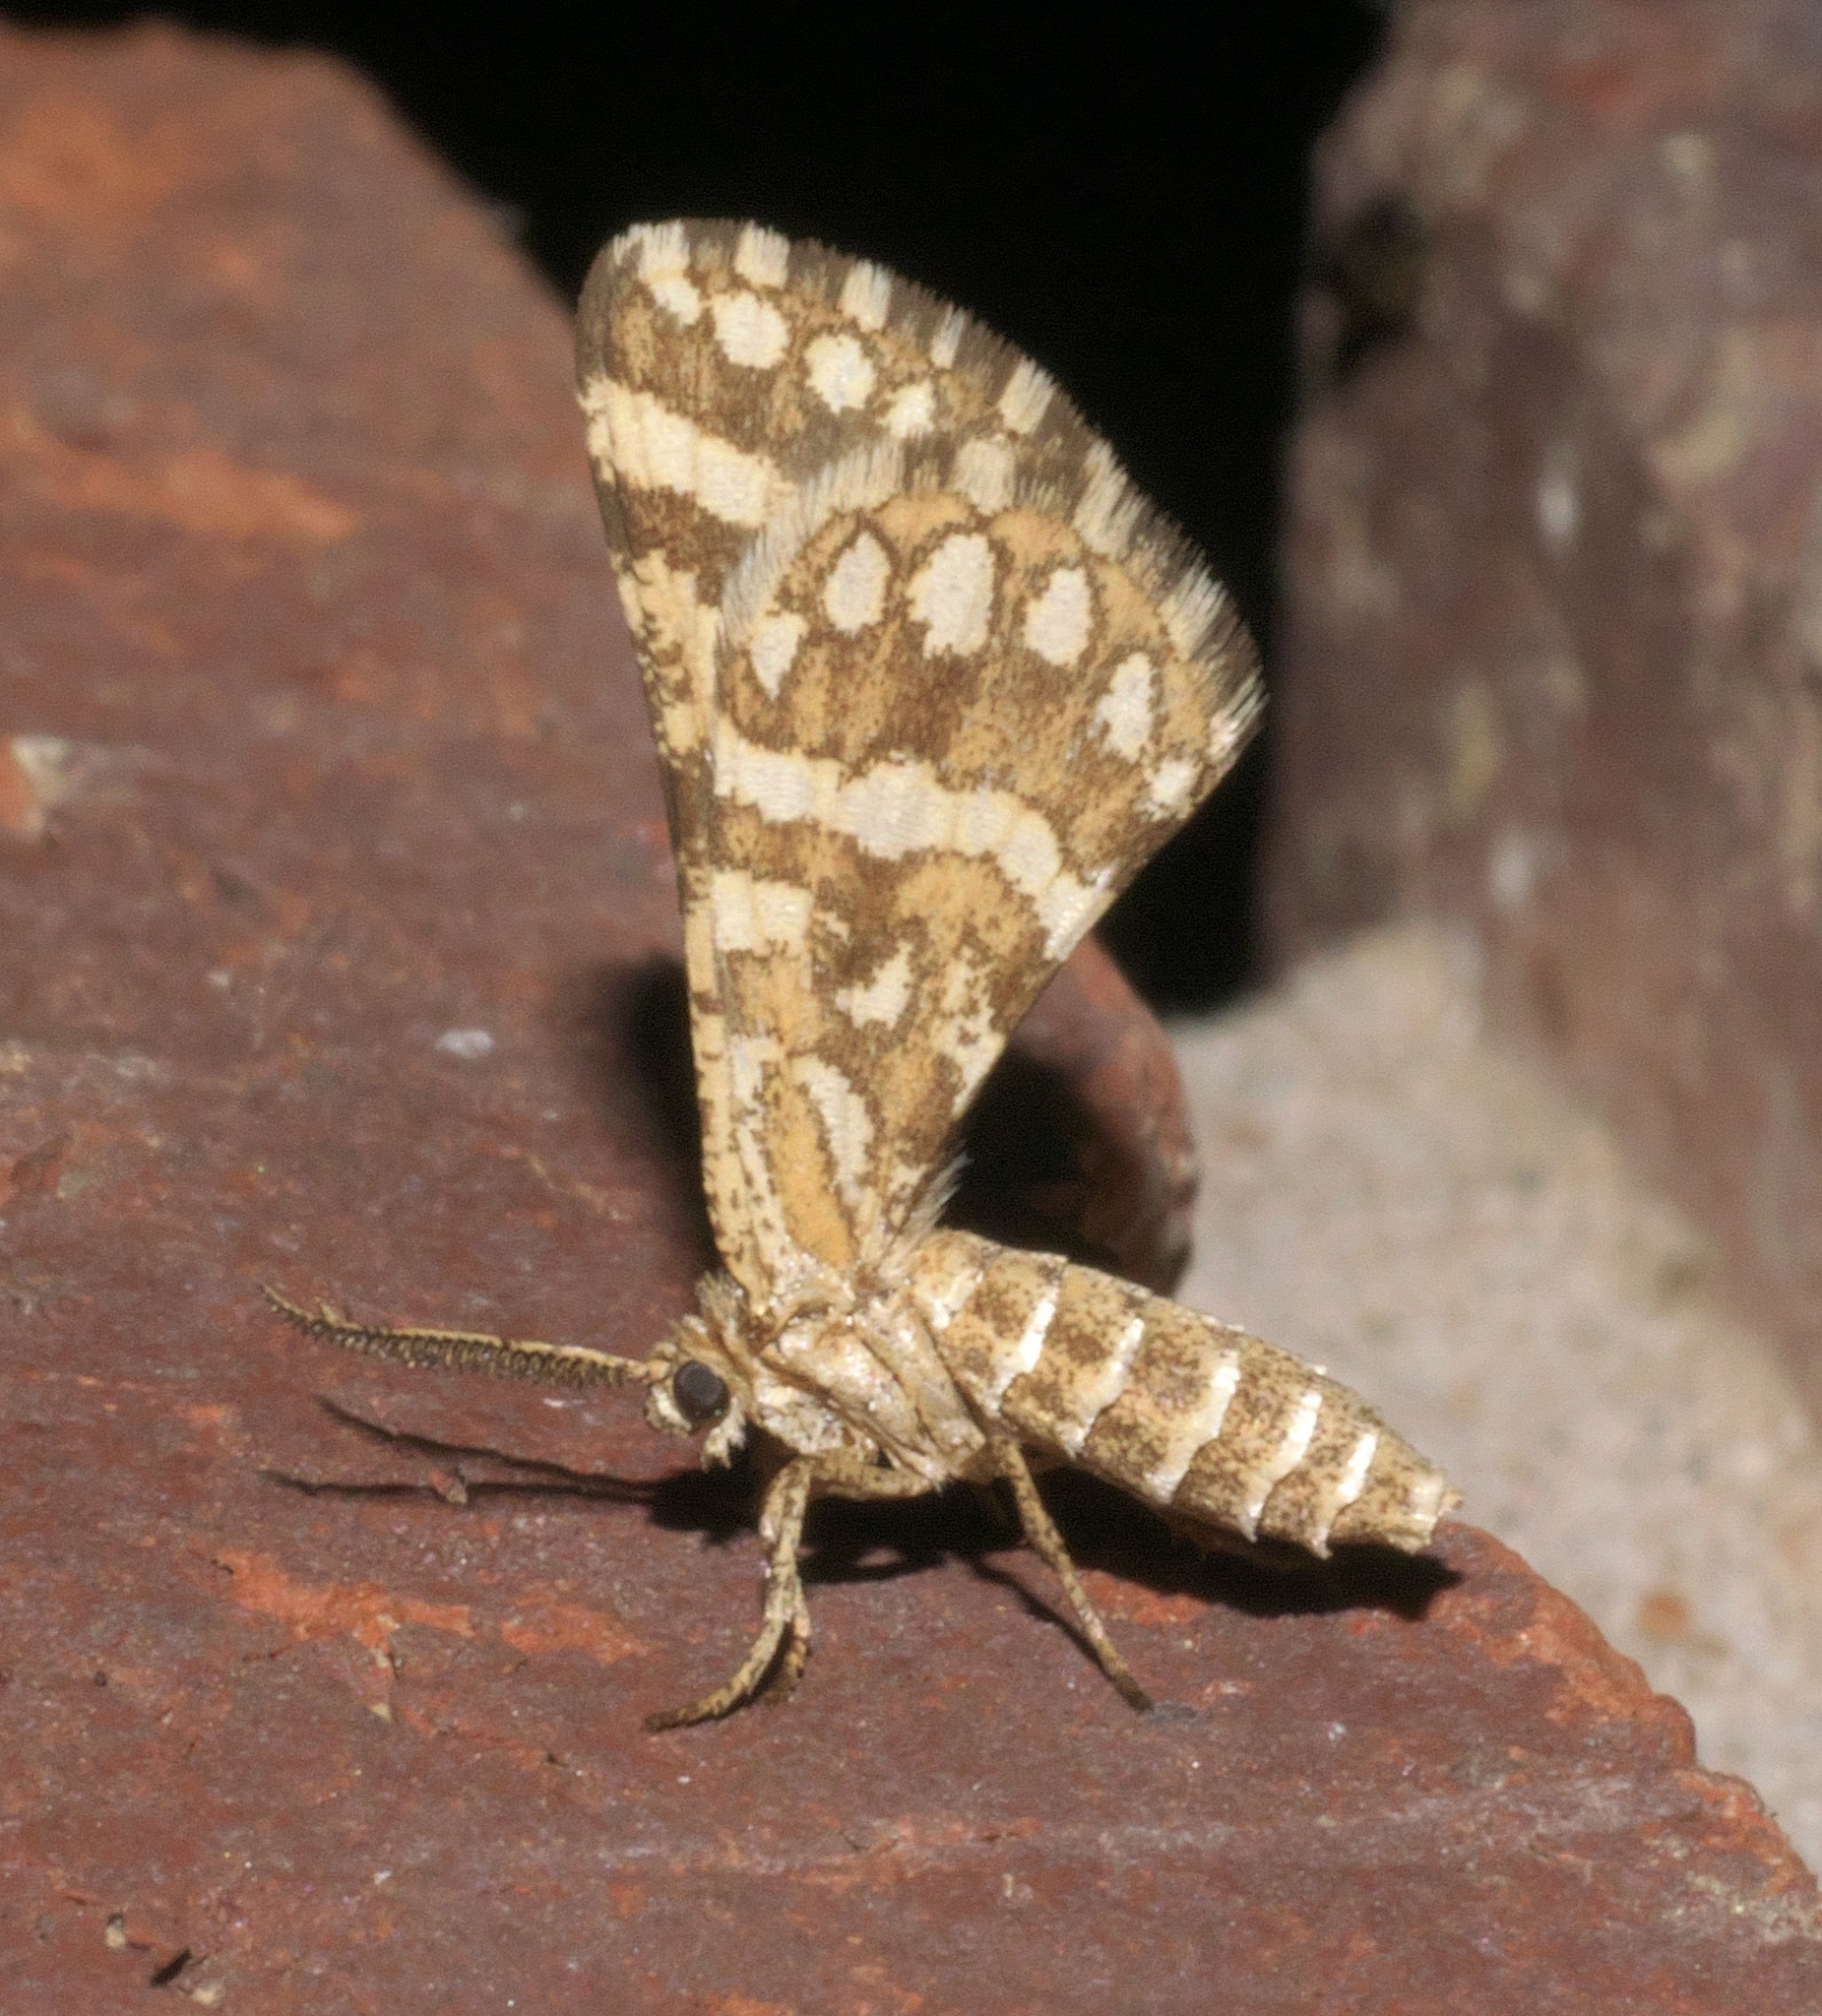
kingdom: Animalia
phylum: Arthropoda
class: Insecta
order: Lepidoptera
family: Geometridae
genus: Narraga
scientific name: Narraga fimetaria
